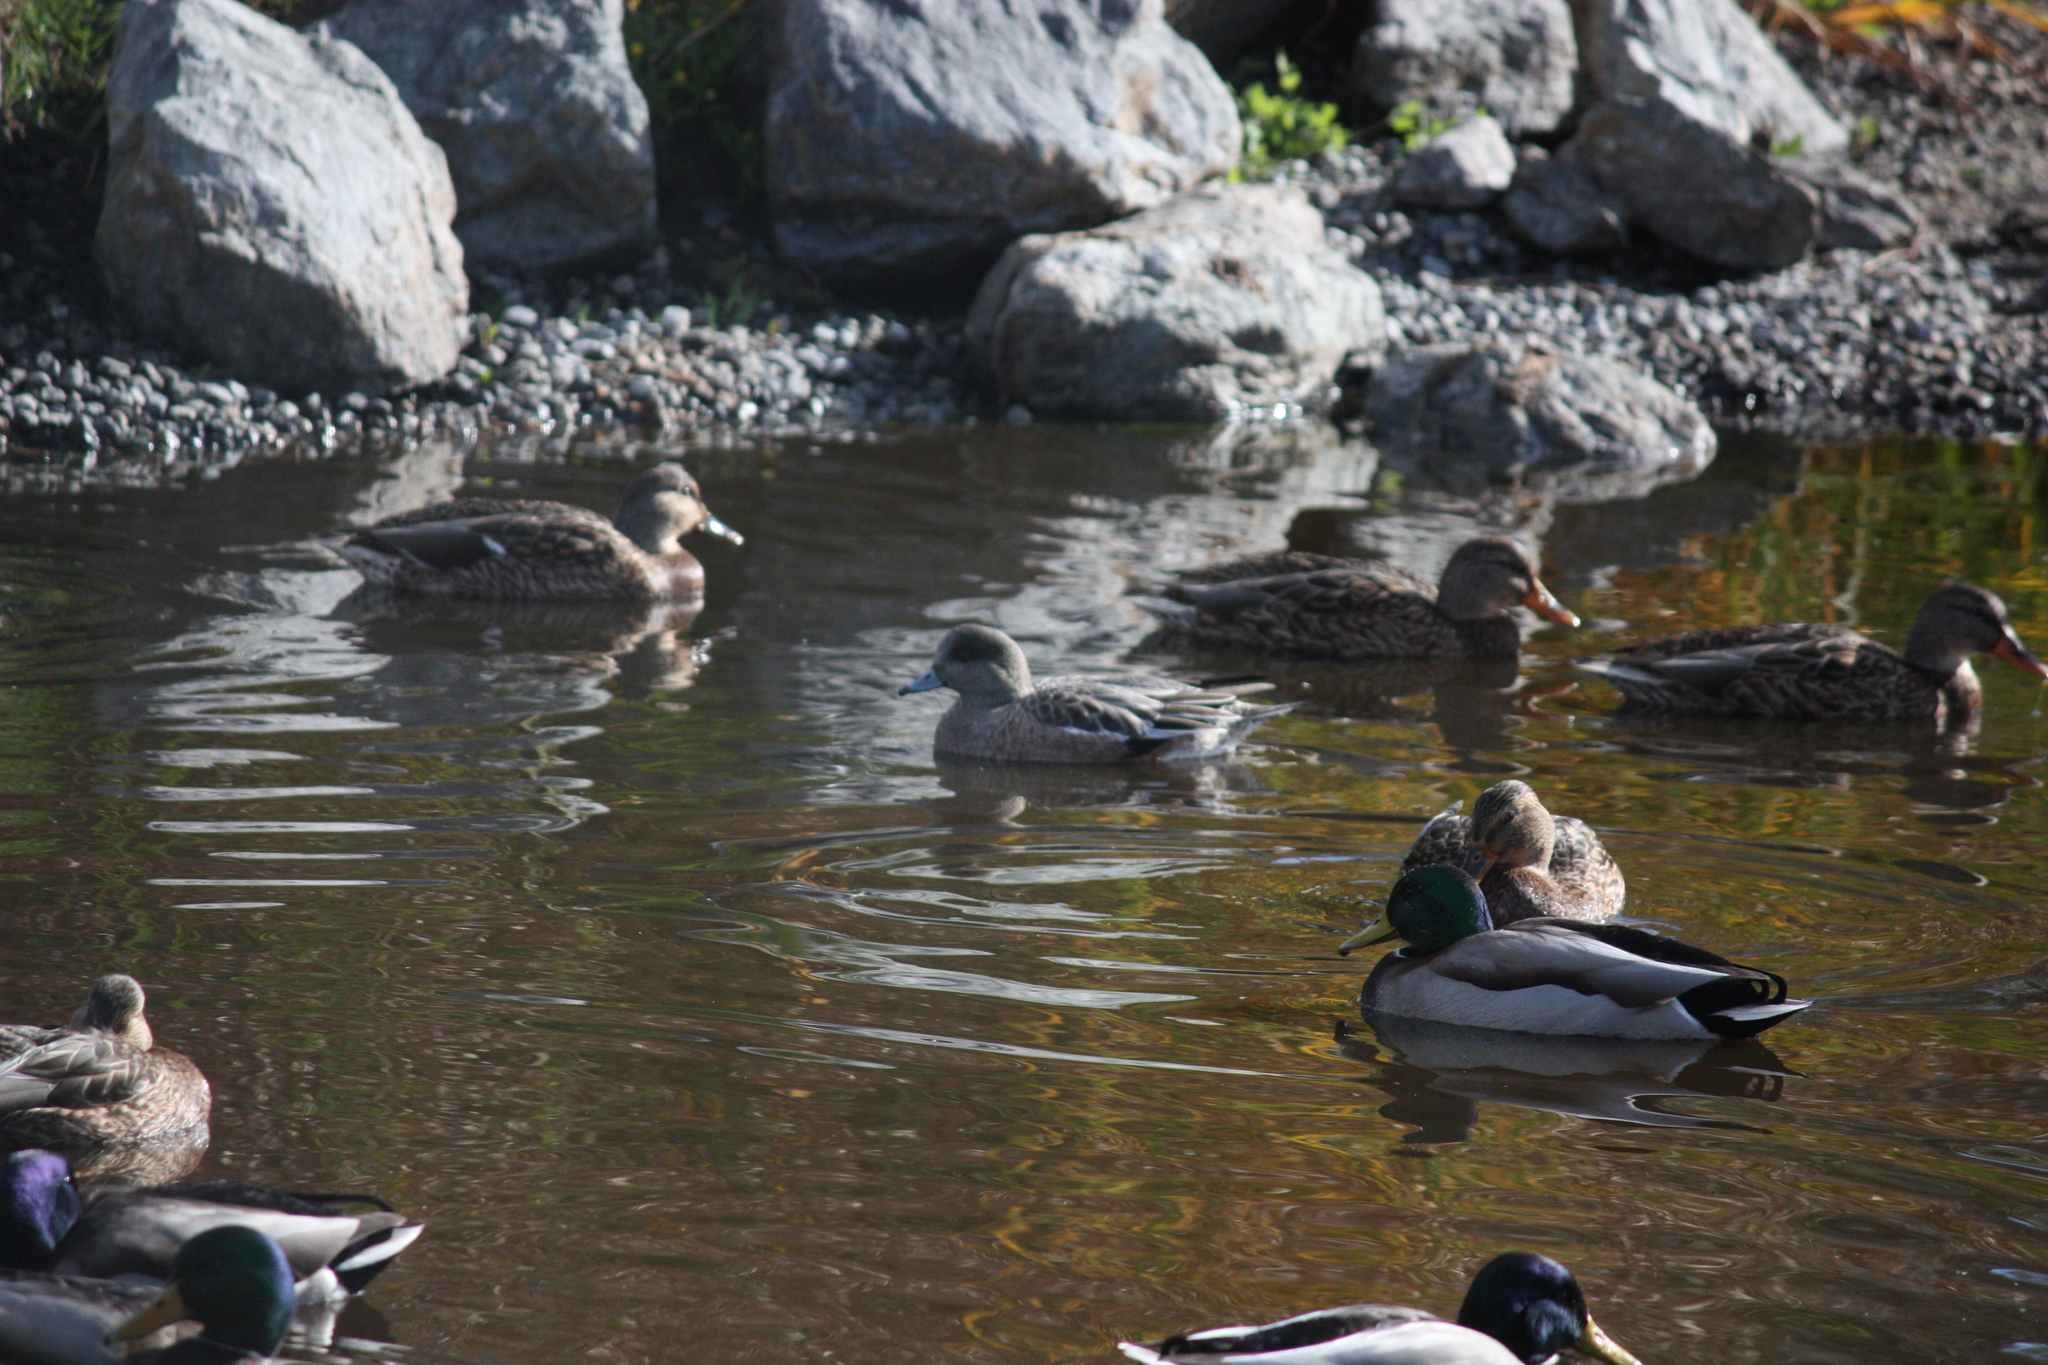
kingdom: Animalia
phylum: Chordata
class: Aves
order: Anseriformes
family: Anatidae
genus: Mareca
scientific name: Mareca americana
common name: American wigeon
